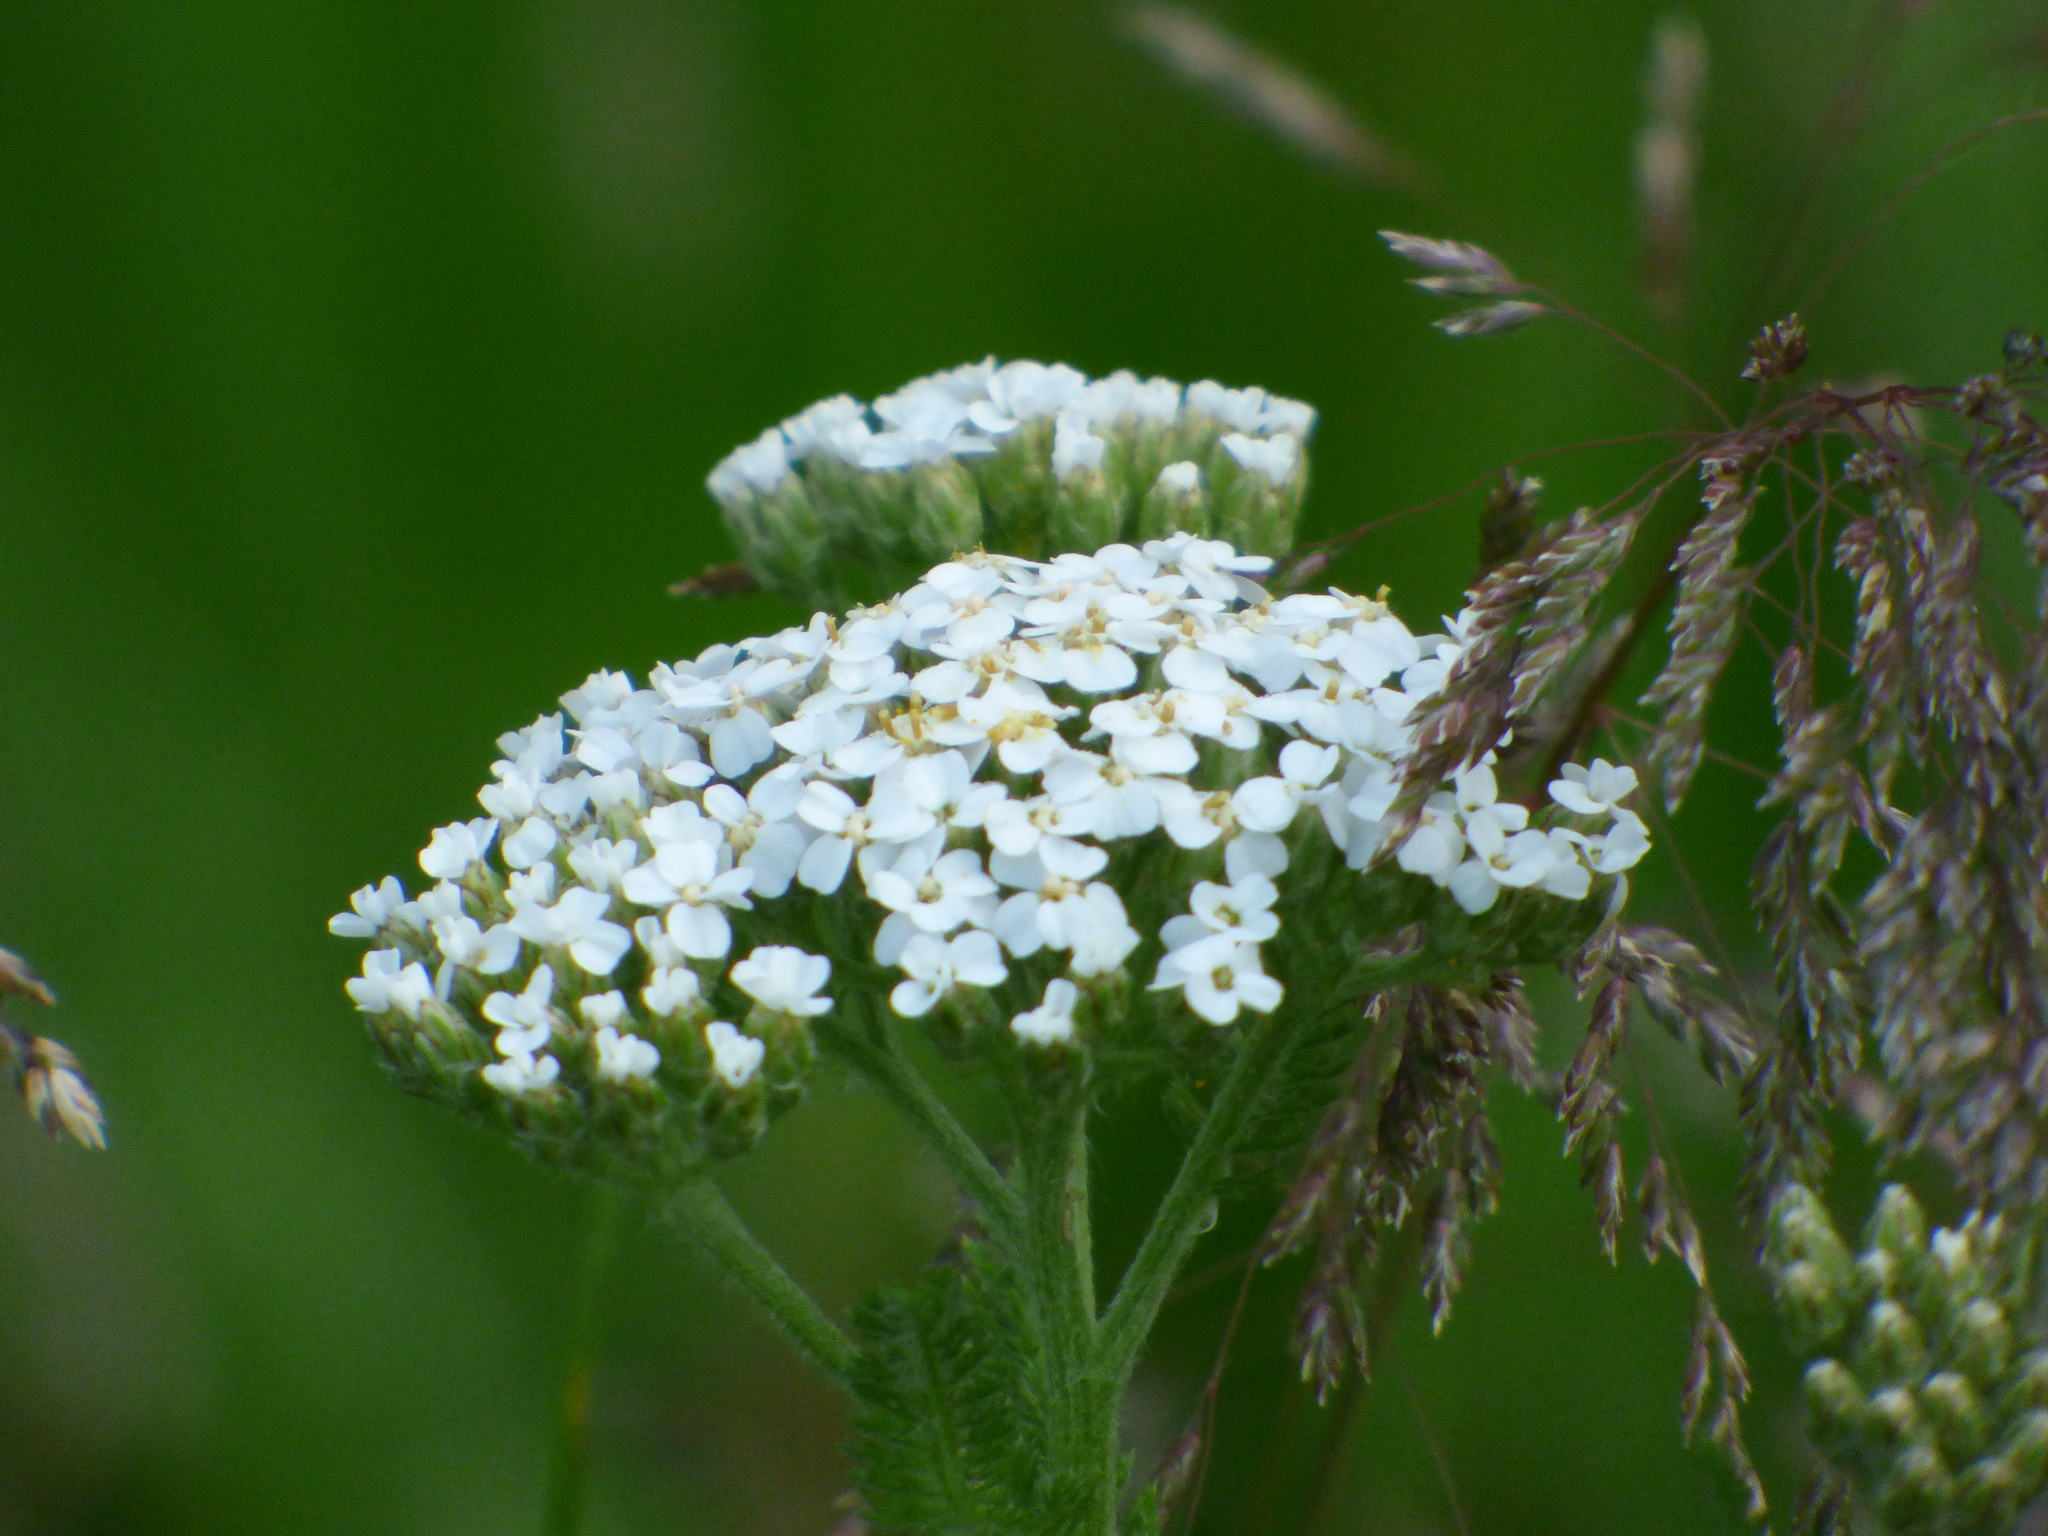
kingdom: Plantae
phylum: Tracheophyta
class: Magnoliopsida
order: Asterales
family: Asteraceae
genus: Achillea
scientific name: Achillea millefolium
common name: Yarrow
